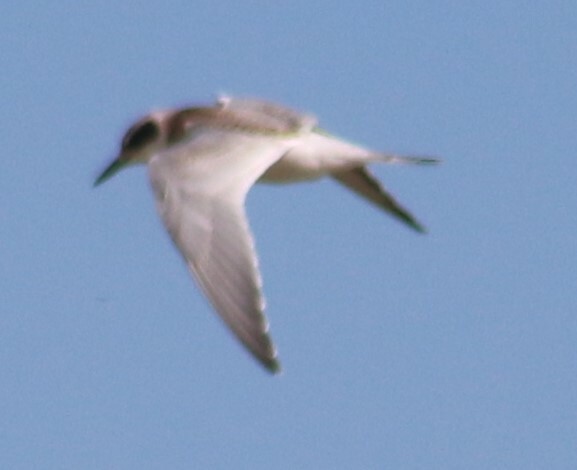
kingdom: Animalia
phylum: Chordata
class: Aves
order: Charadriiformes
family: Laridae
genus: Sterna
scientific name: Sterna forsteri
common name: Forster's tern
